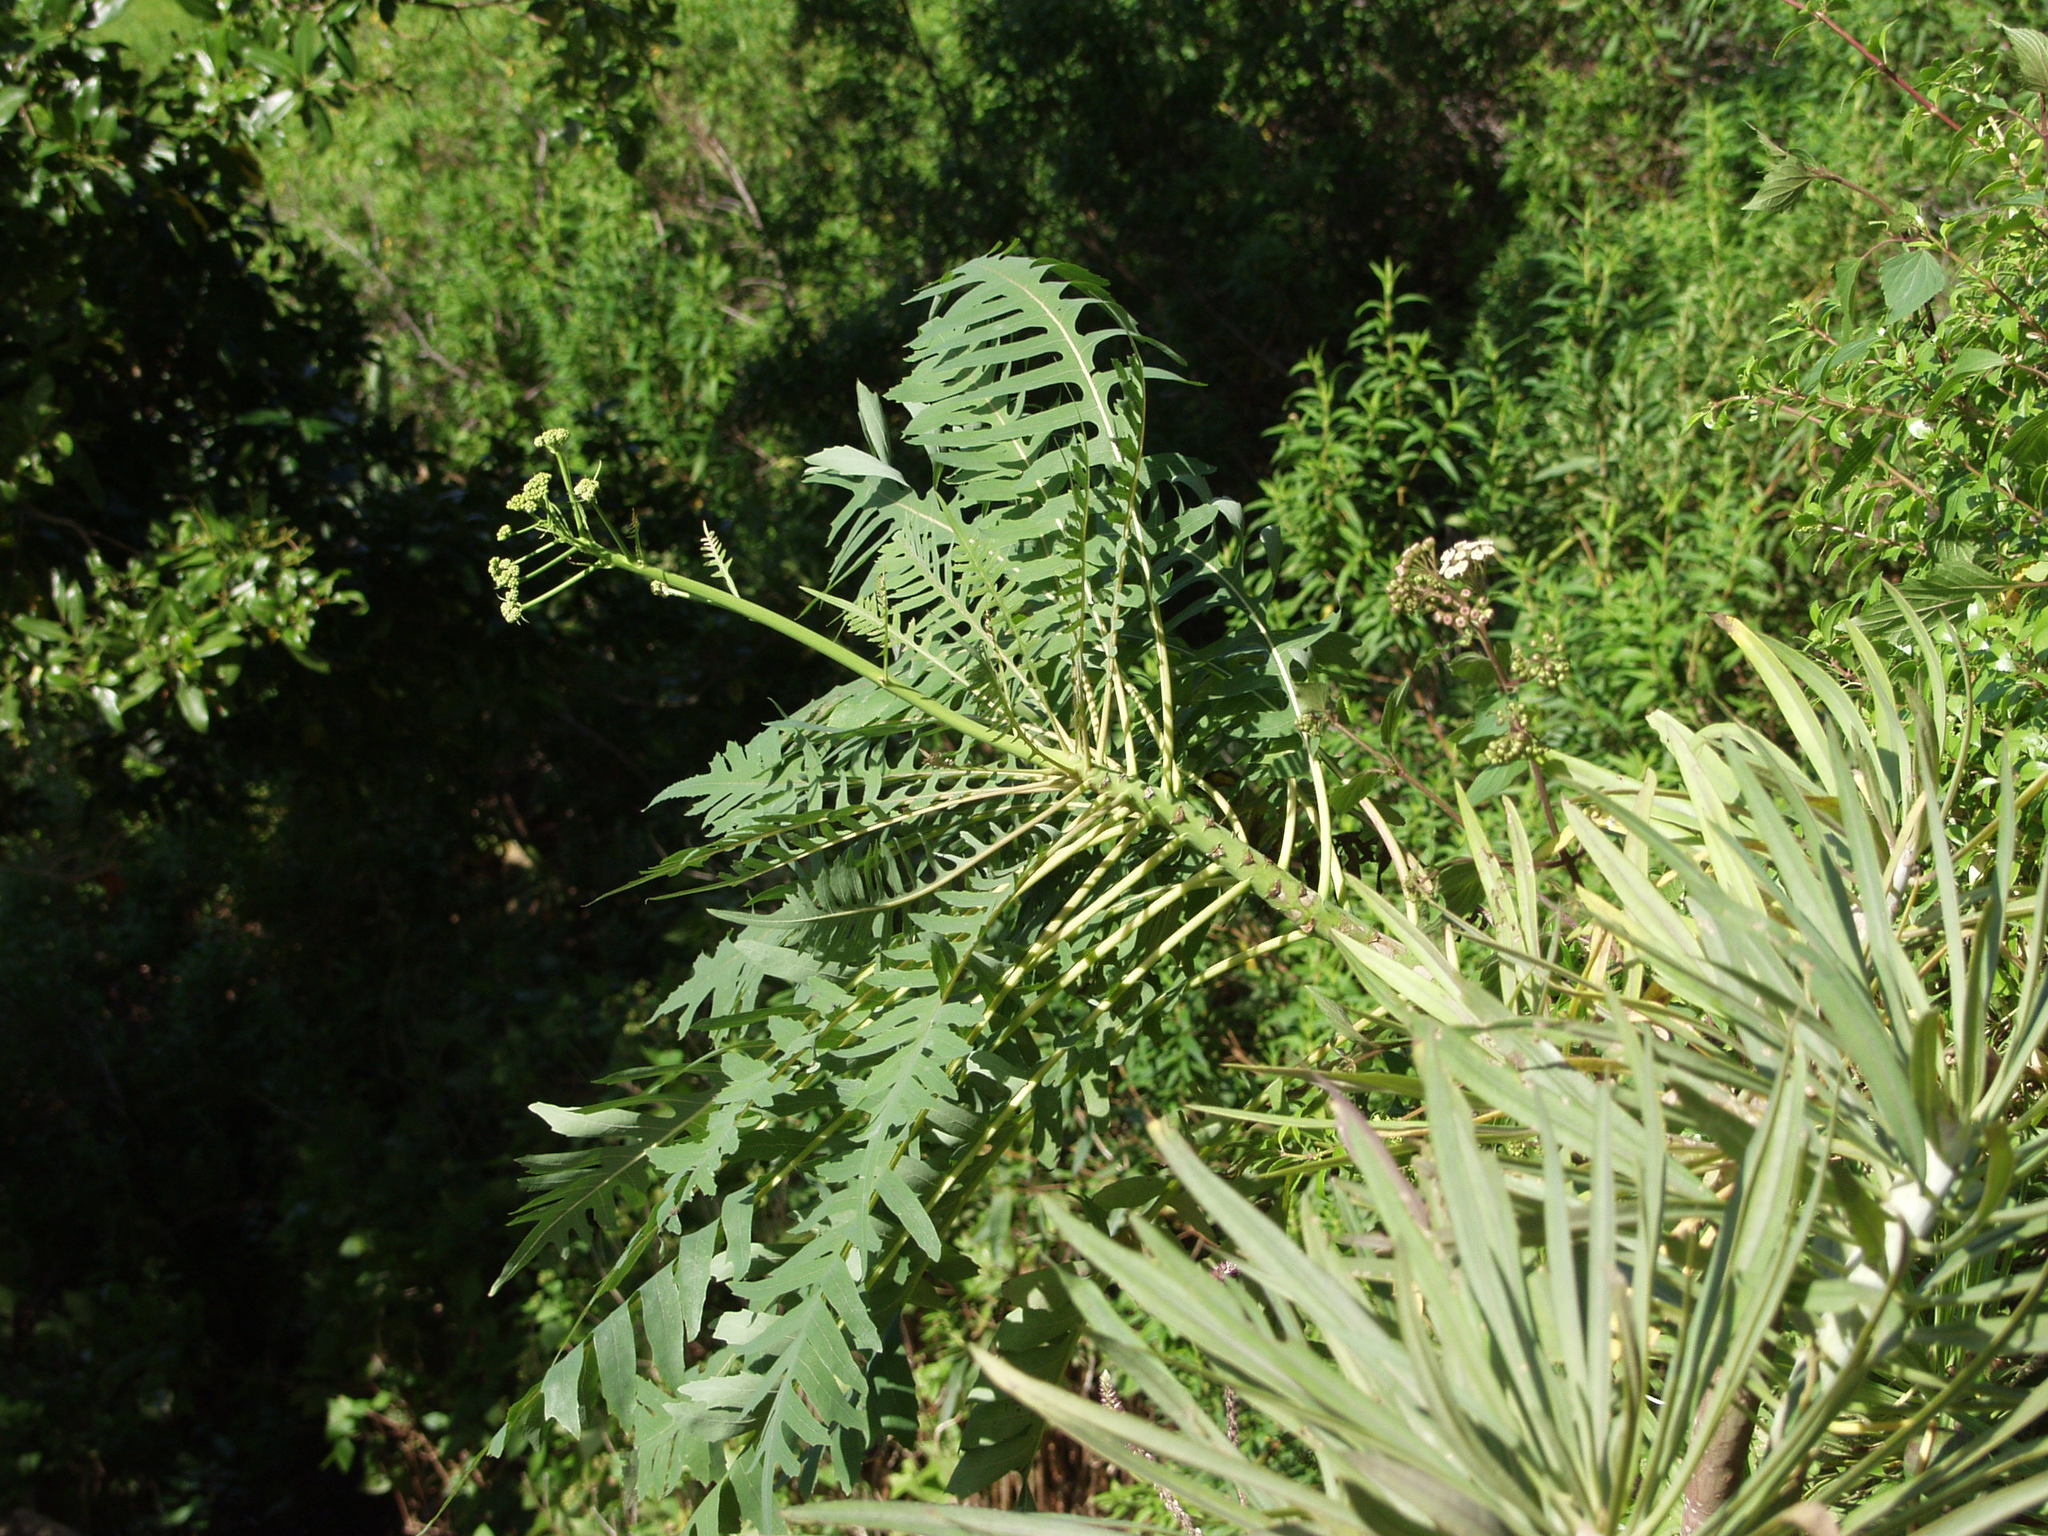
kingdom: Plantae
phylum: Tracheophyta
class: Magnoliopsida
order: Asterales
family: Asteraceae
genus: Sonchus
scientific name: Sonchus palmensis
